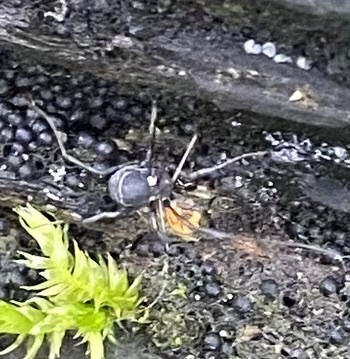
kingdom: Animalia
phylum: Arthropoda
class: Arachnida
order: Opiliones
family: Nemastomatidae
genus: Nemastoma
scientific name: Nemastoma bimaculatum
